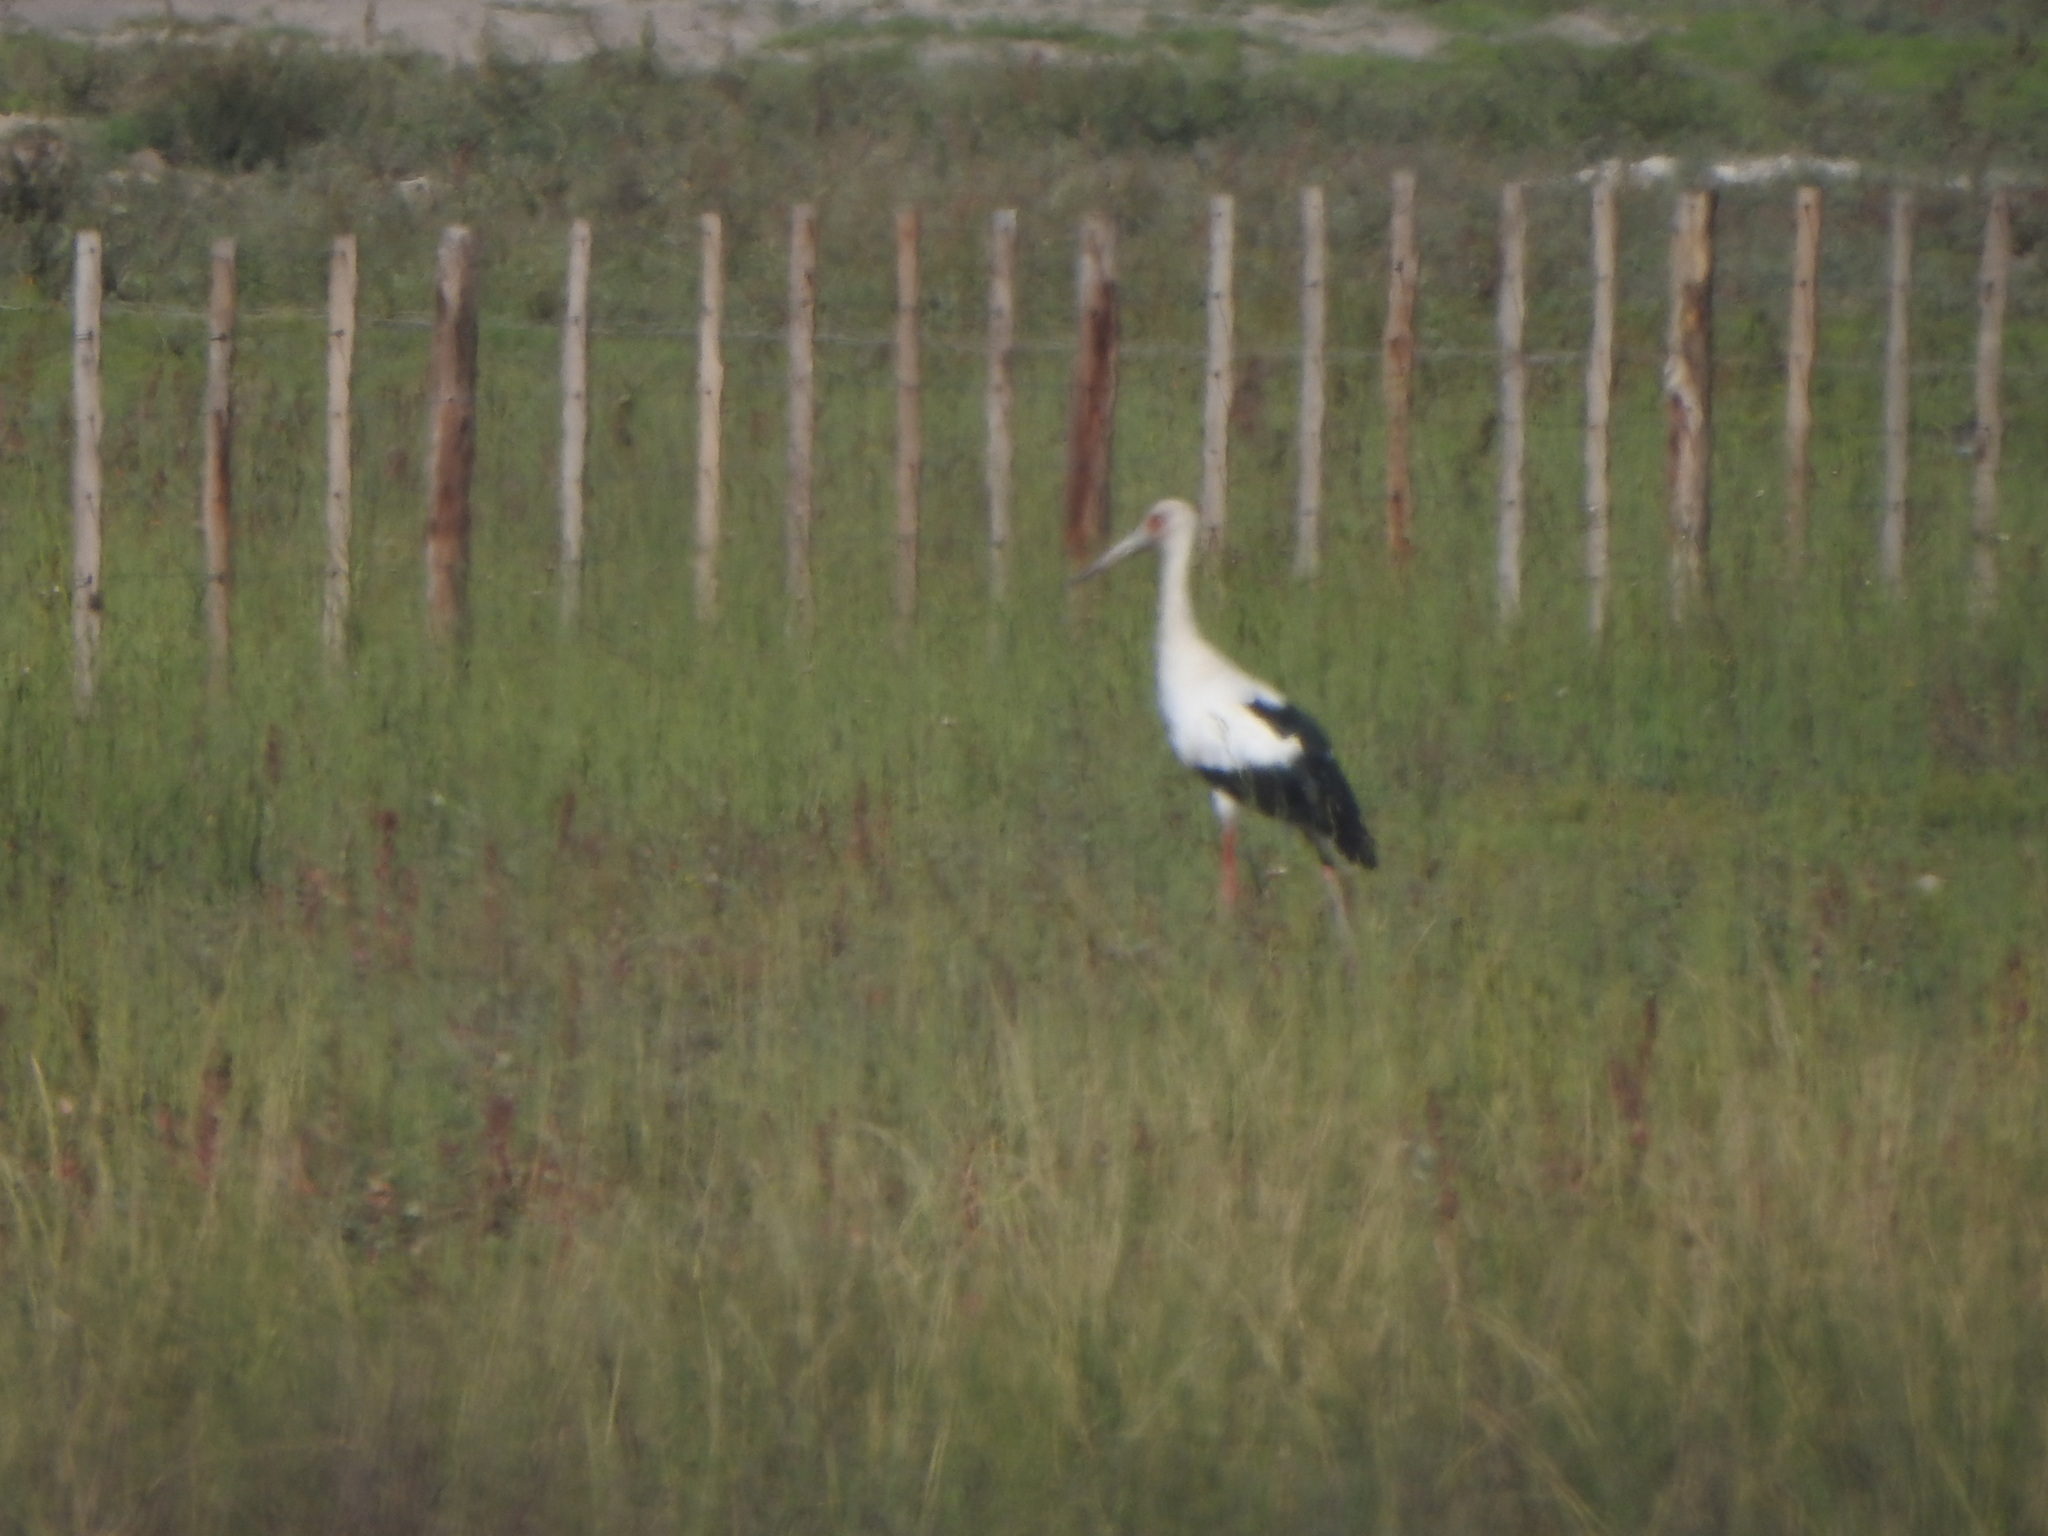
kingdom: Animalia
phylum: Chordata
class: Aves
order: Ciconiiformes
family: Ciconiidae
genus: Ciconia
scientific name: Ciconia maguari
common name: Maguari stork
